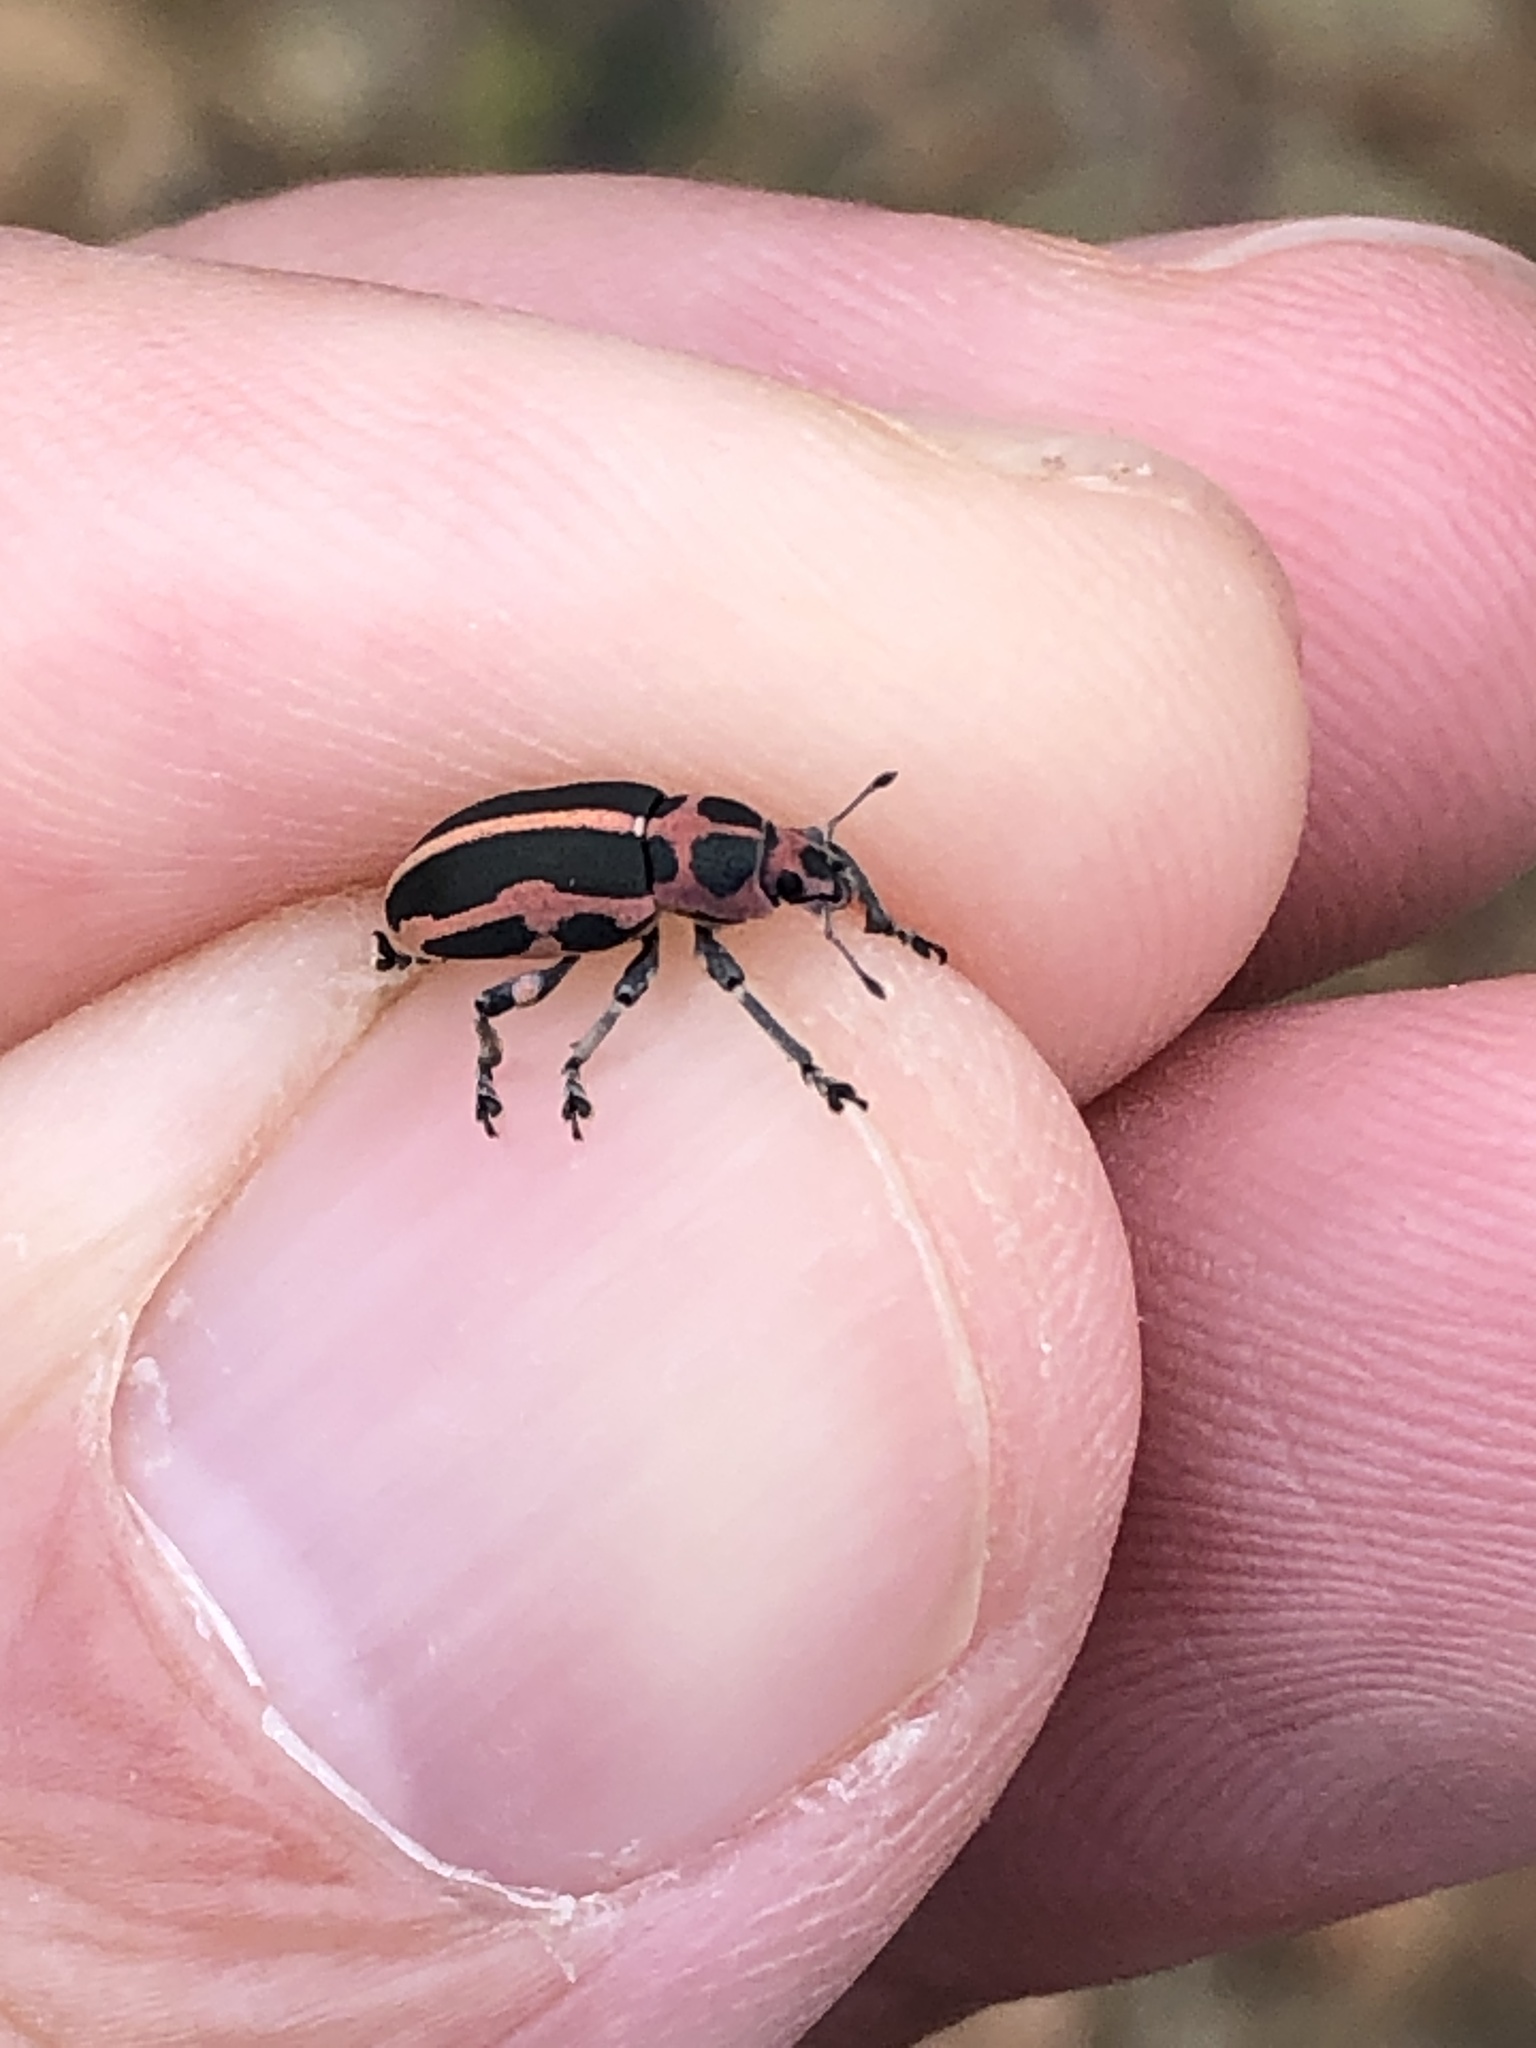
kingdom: Animalia
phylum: Arthropoda
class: Insecta
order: Coleoptera
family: Curculionidae
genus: Eudiagogus
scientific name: Eudiagogus pulcher
